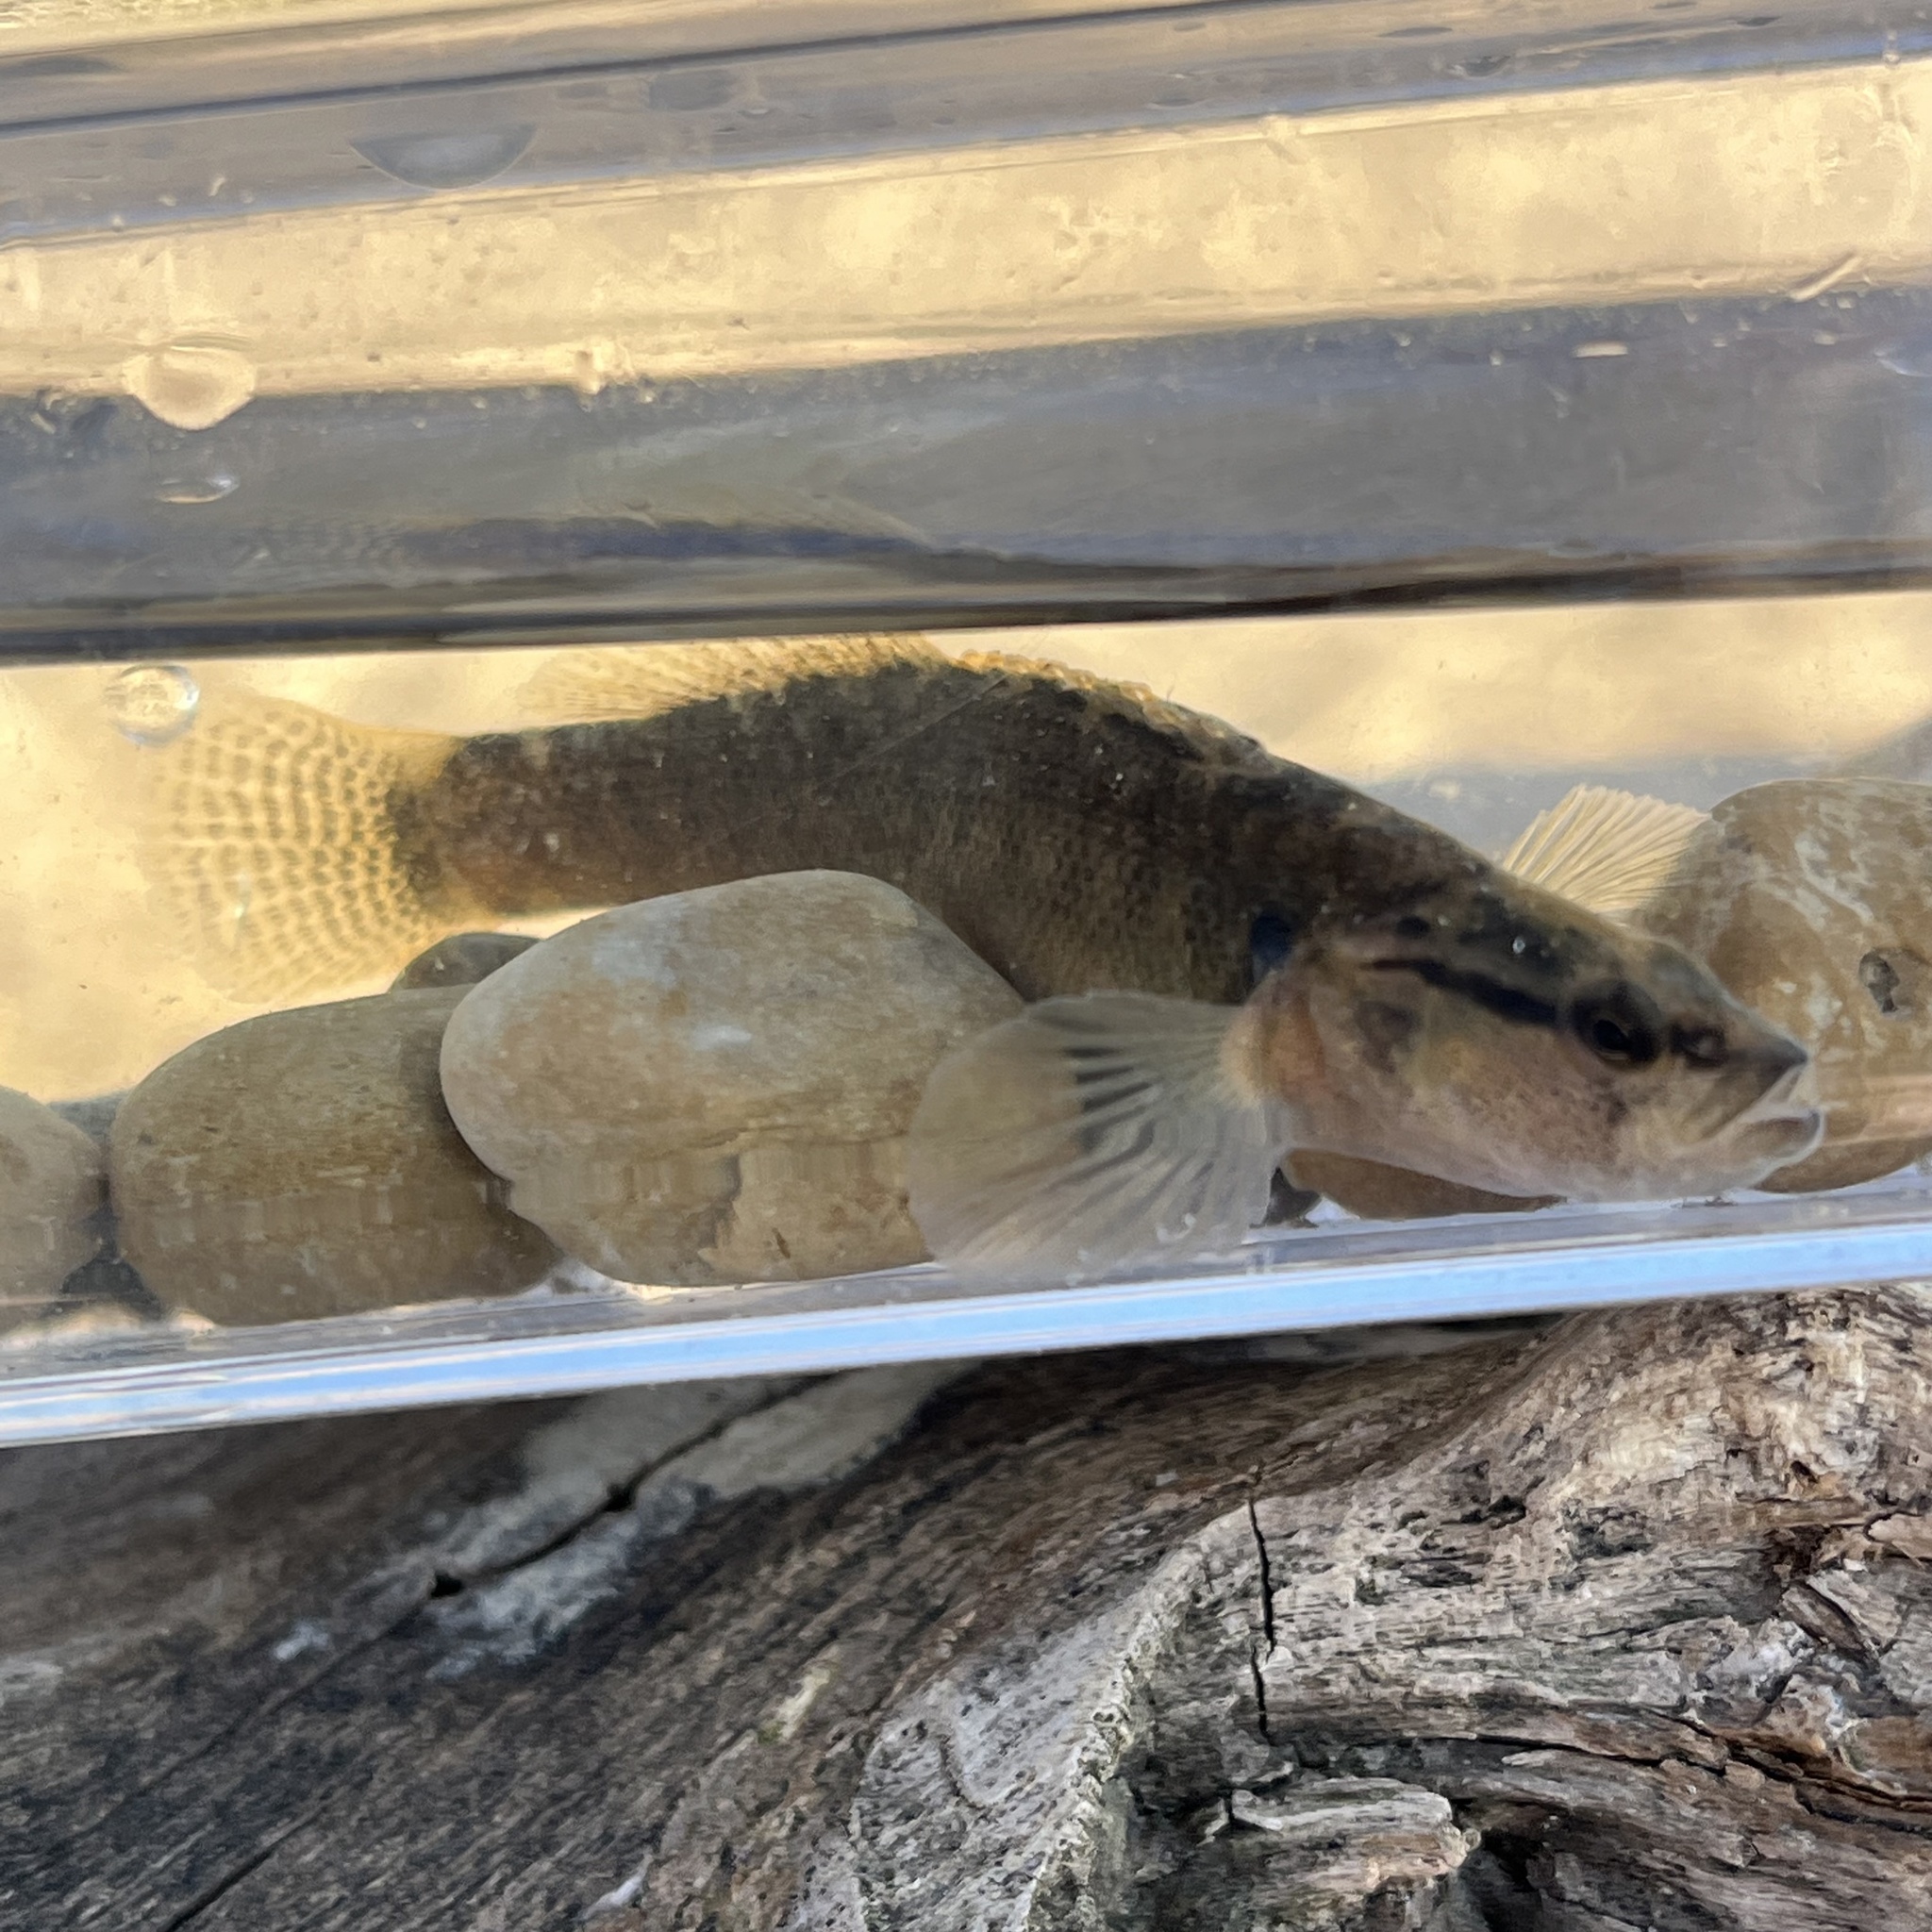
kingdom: Animalia
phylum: Chordata
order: Perciformes
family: Percidae
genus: Etheostoma
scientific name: Etheostoma flabellare
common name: Fantail darter
